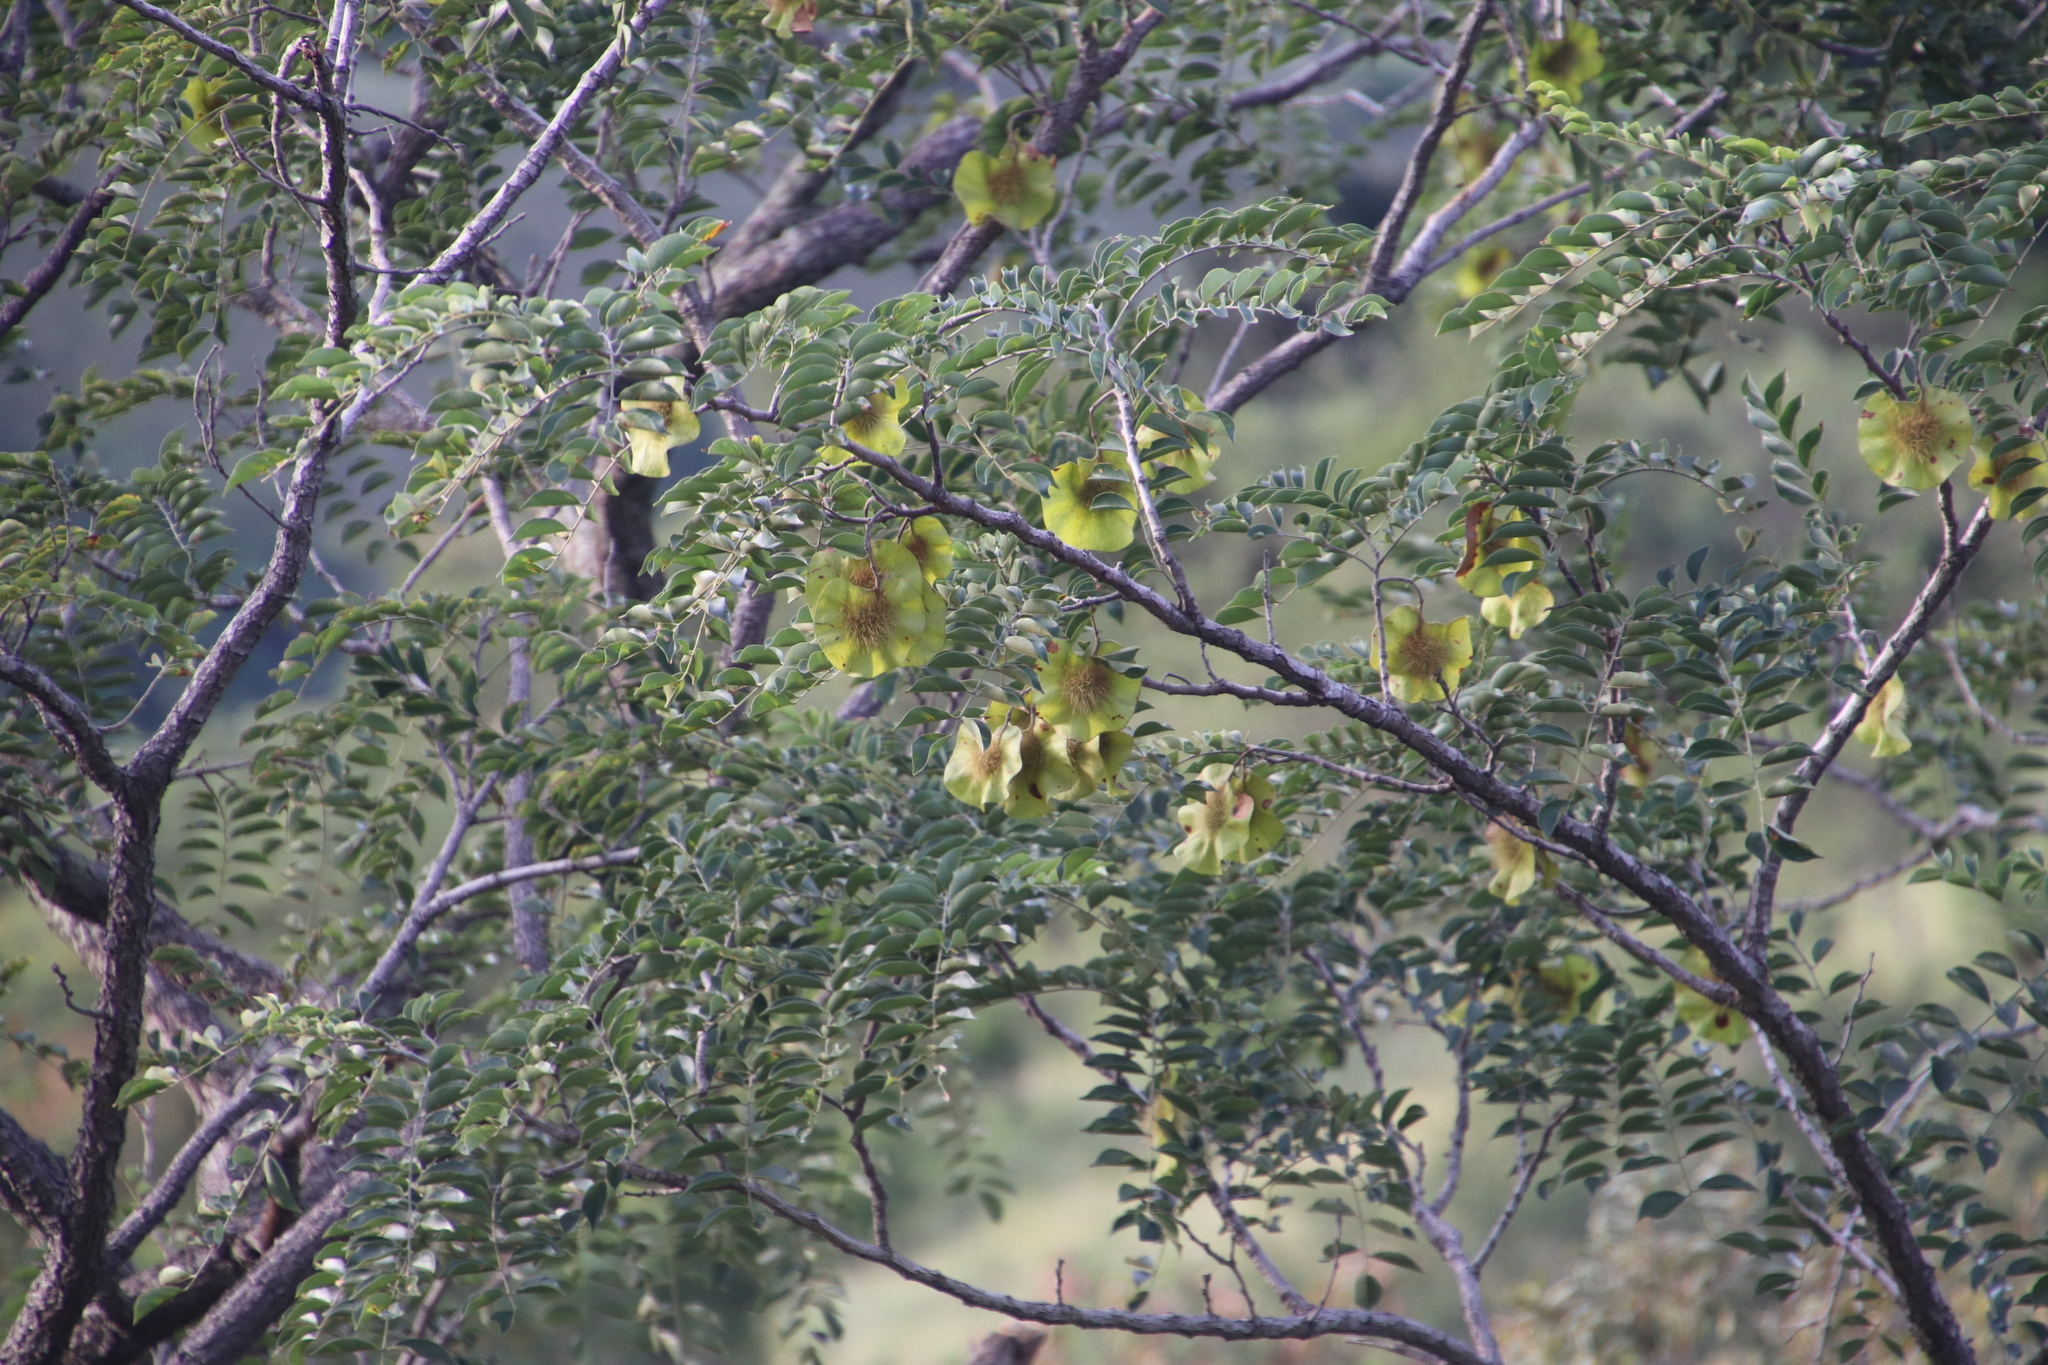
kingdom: Plantae
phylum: Tracheophyta
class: Magnoliopsida
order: Fabales
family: Fabaceae
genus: Pterocarpus
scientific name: Pterocarpus angolensis
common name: Bloodwood tree
